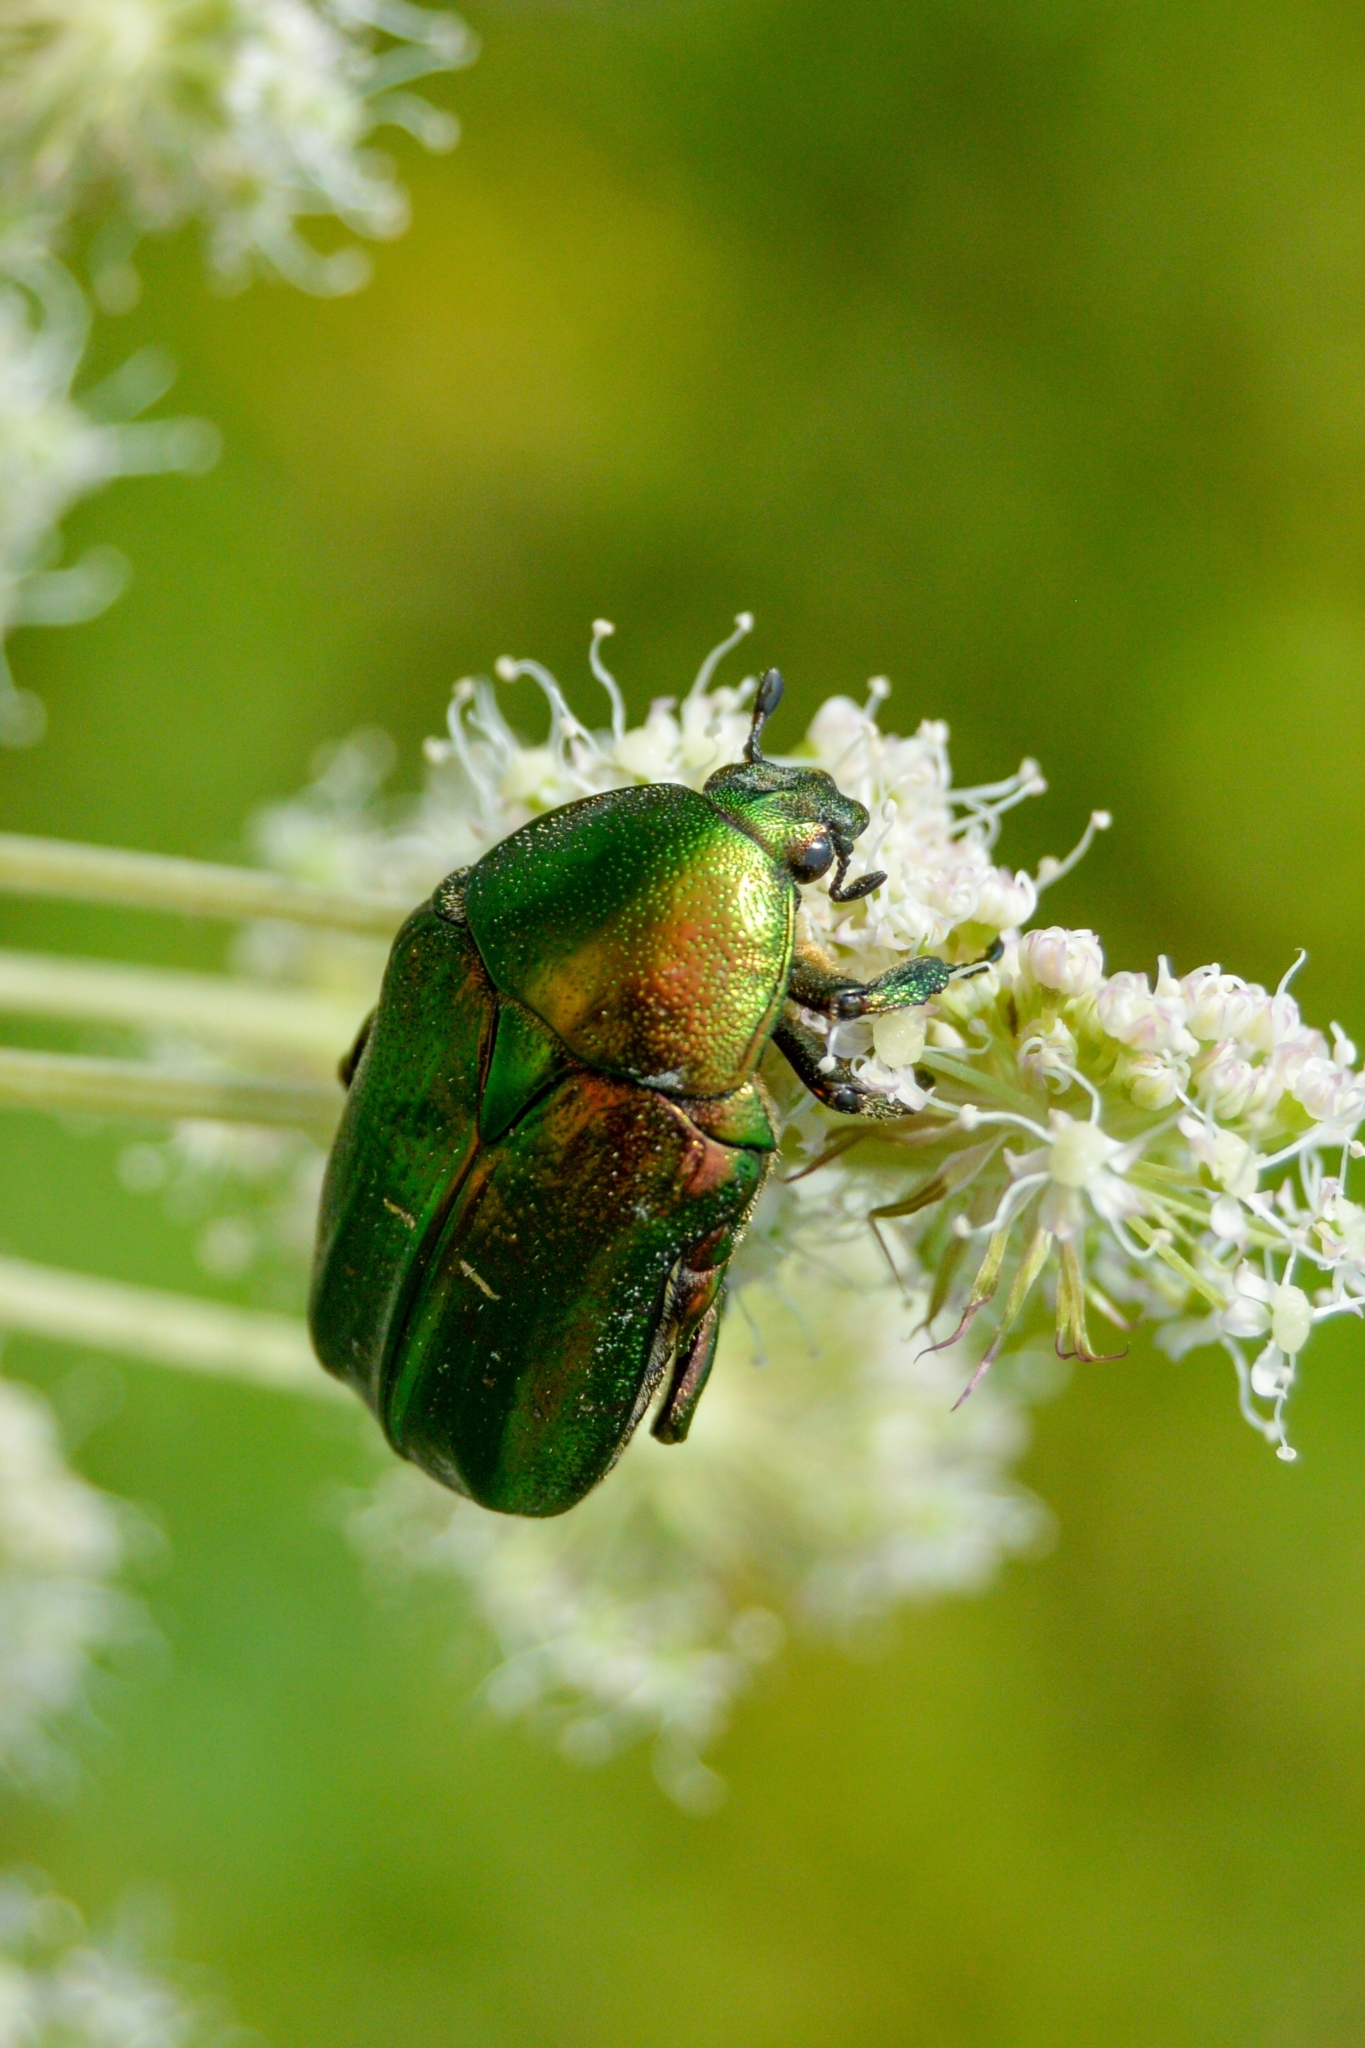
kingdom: Animalia
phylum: Arthropoda
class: Insecta
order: Coleoptera
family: Scarabaeidae
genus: Cetonia
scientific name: Cetonia aurata
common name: Rose chafer
